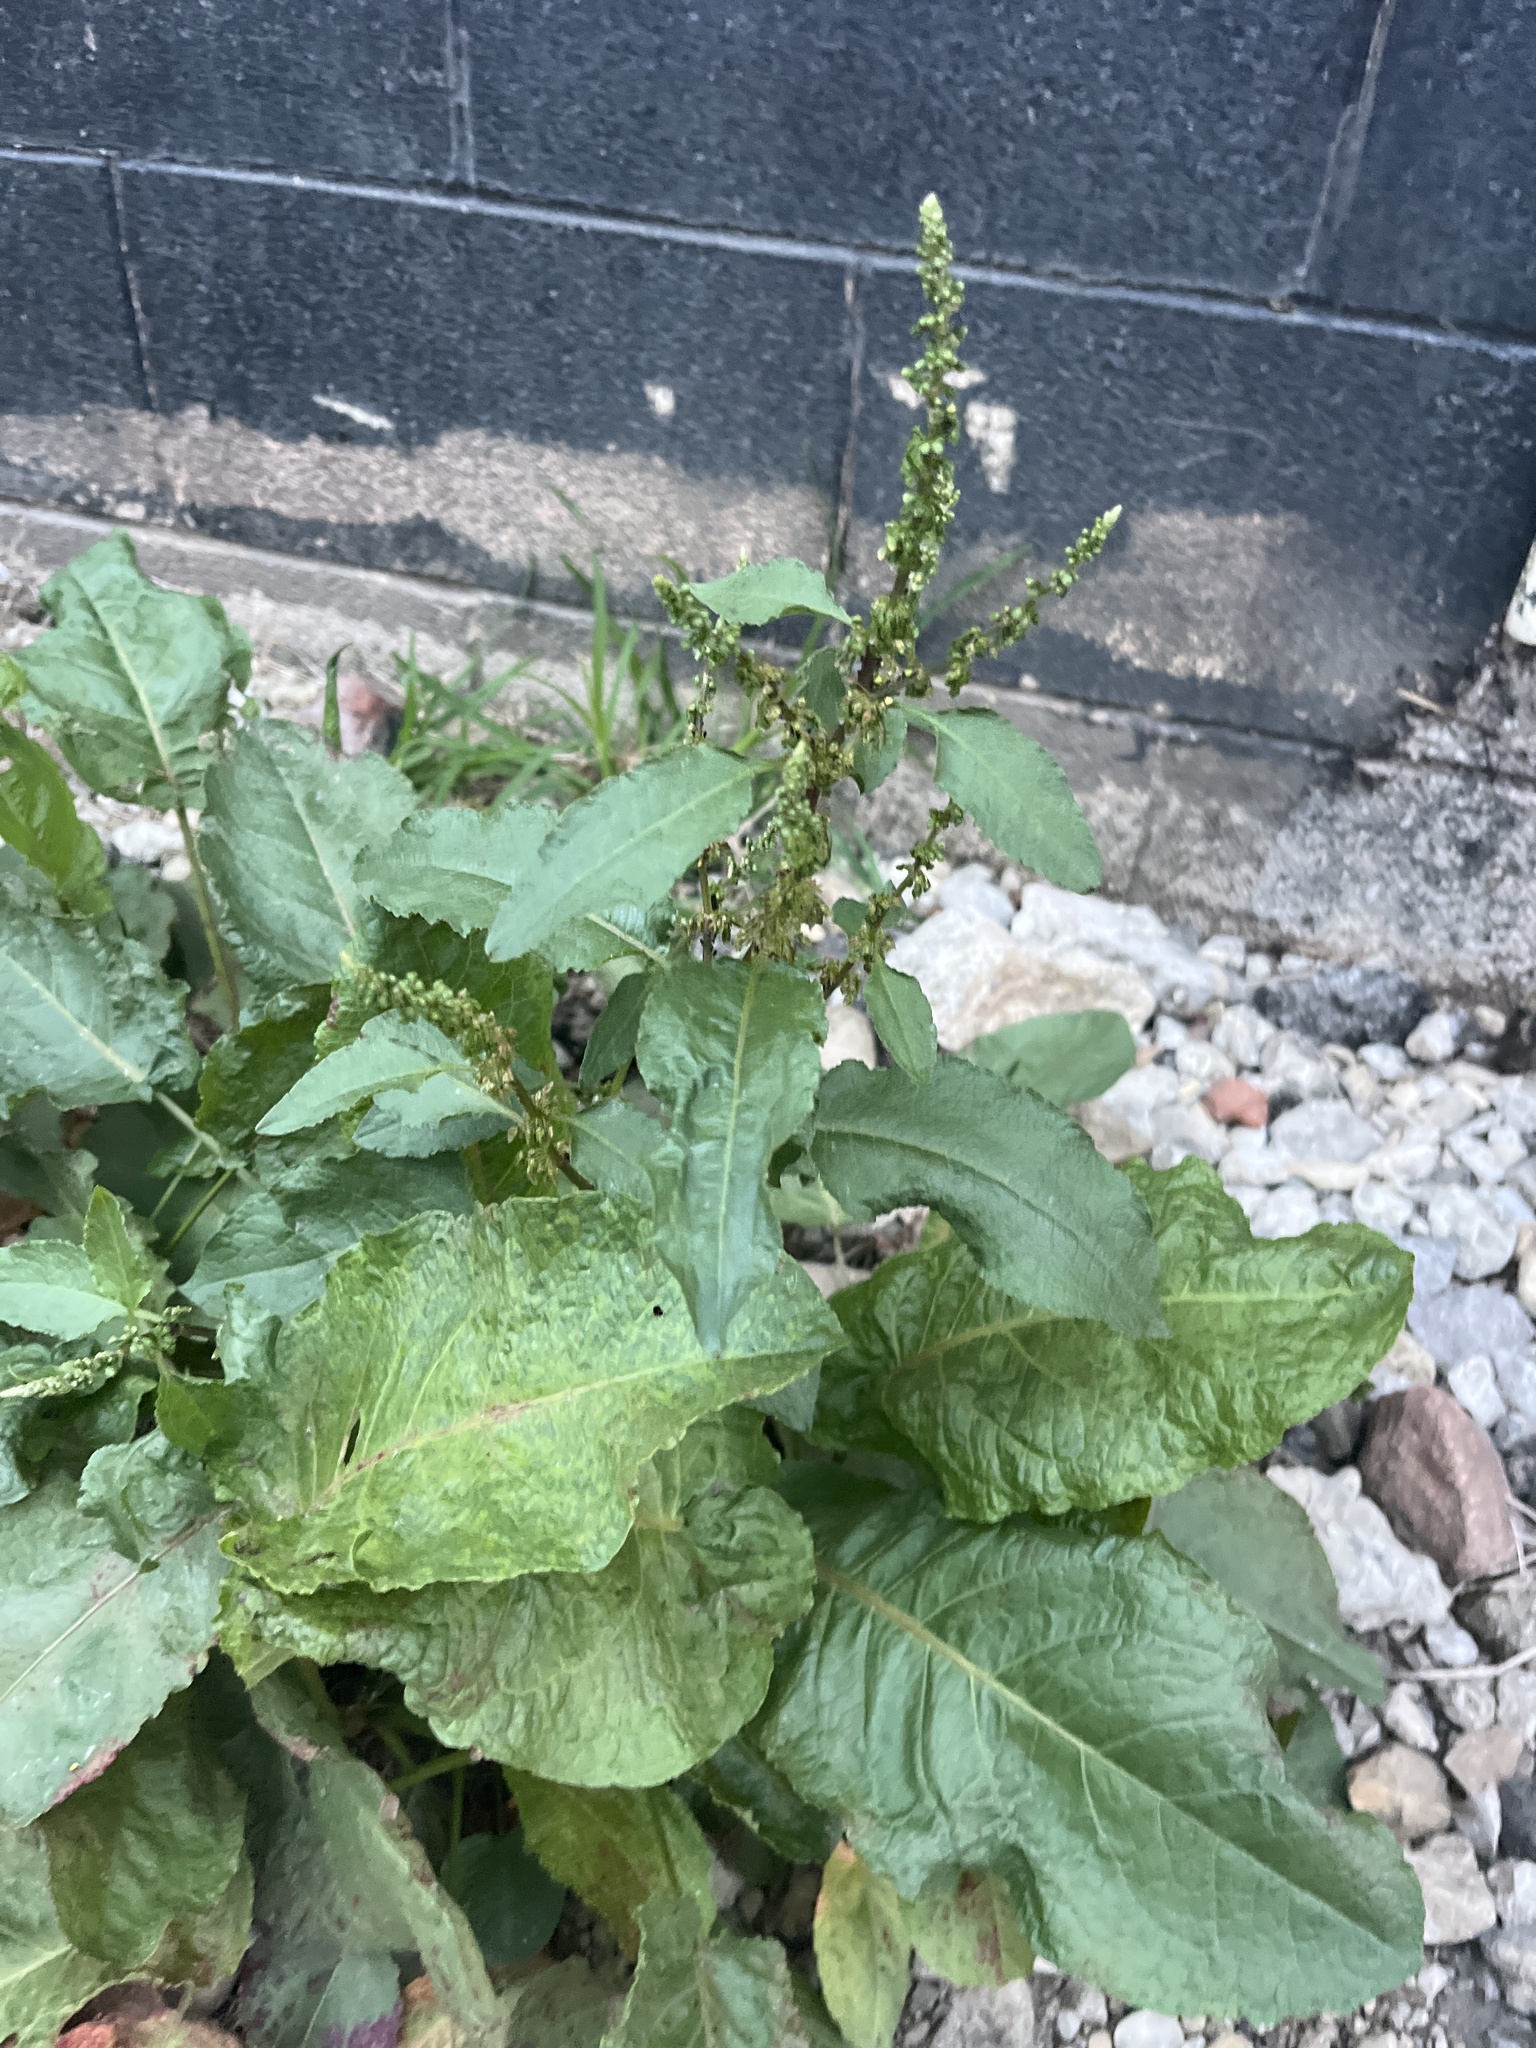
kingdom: Plantae
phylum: Tracheophyta
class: Magnoliopsida
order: Caryophyllales
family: Polygonaceae
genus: Rumex
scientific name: Rumex obtusifolius
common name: Bitter dock
